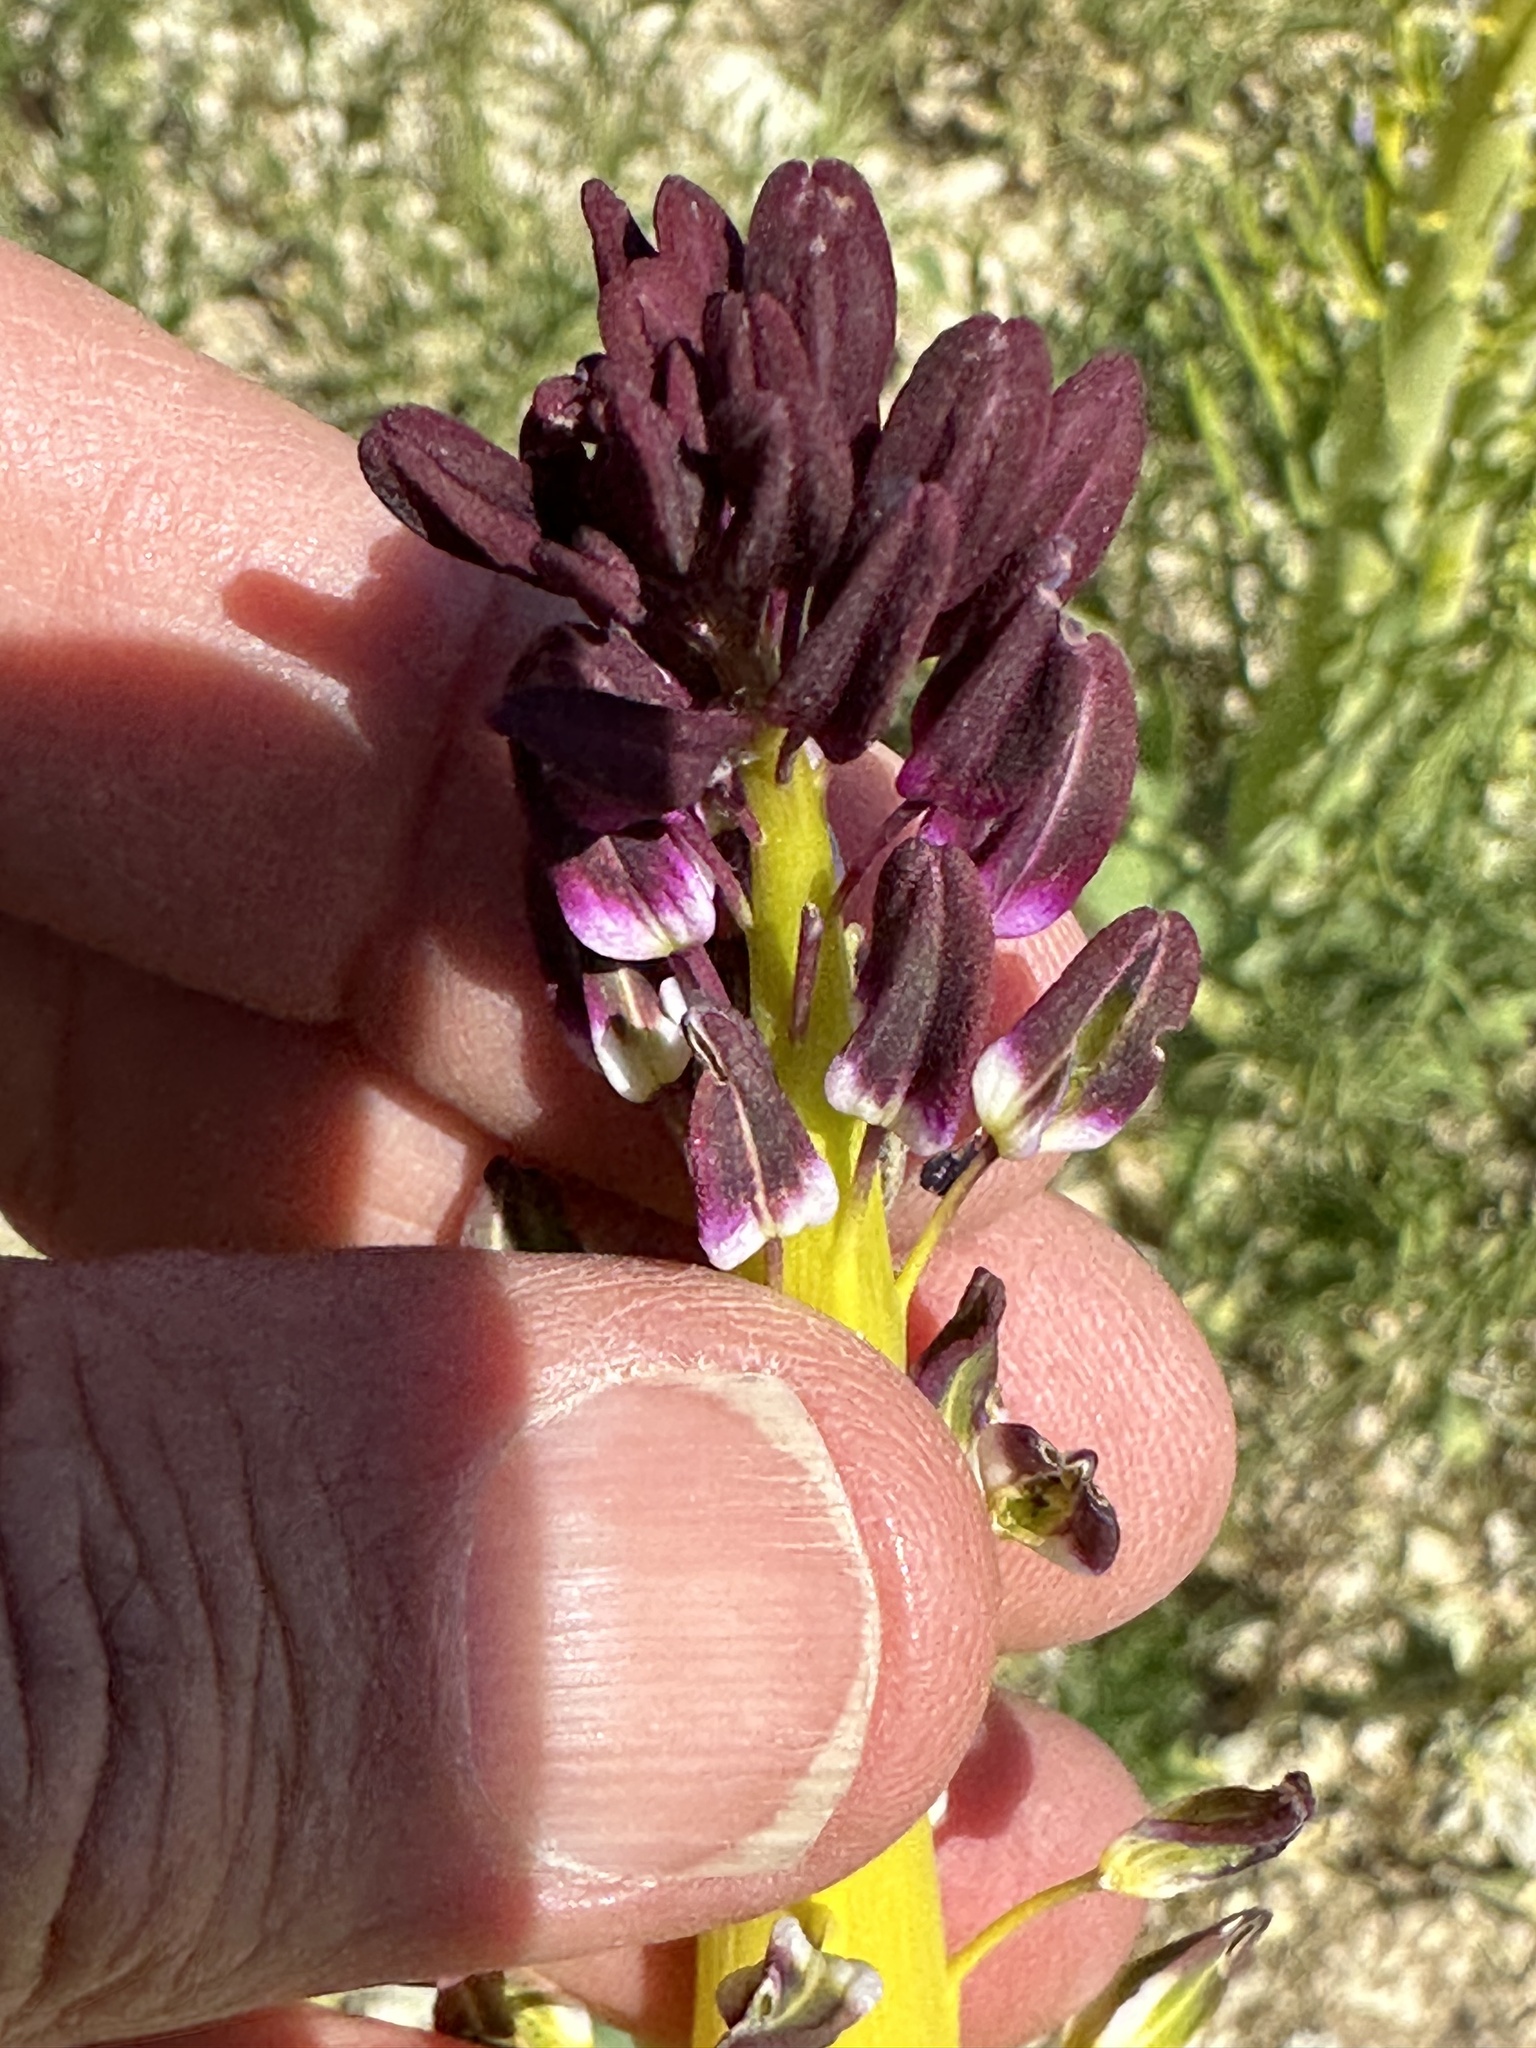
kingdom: Plantae
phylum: Tracheophyta
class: Magnoliopsida
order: Brassicales
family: Brassicaceae
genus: Streptanthus
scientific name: Streptanthus inflatus
